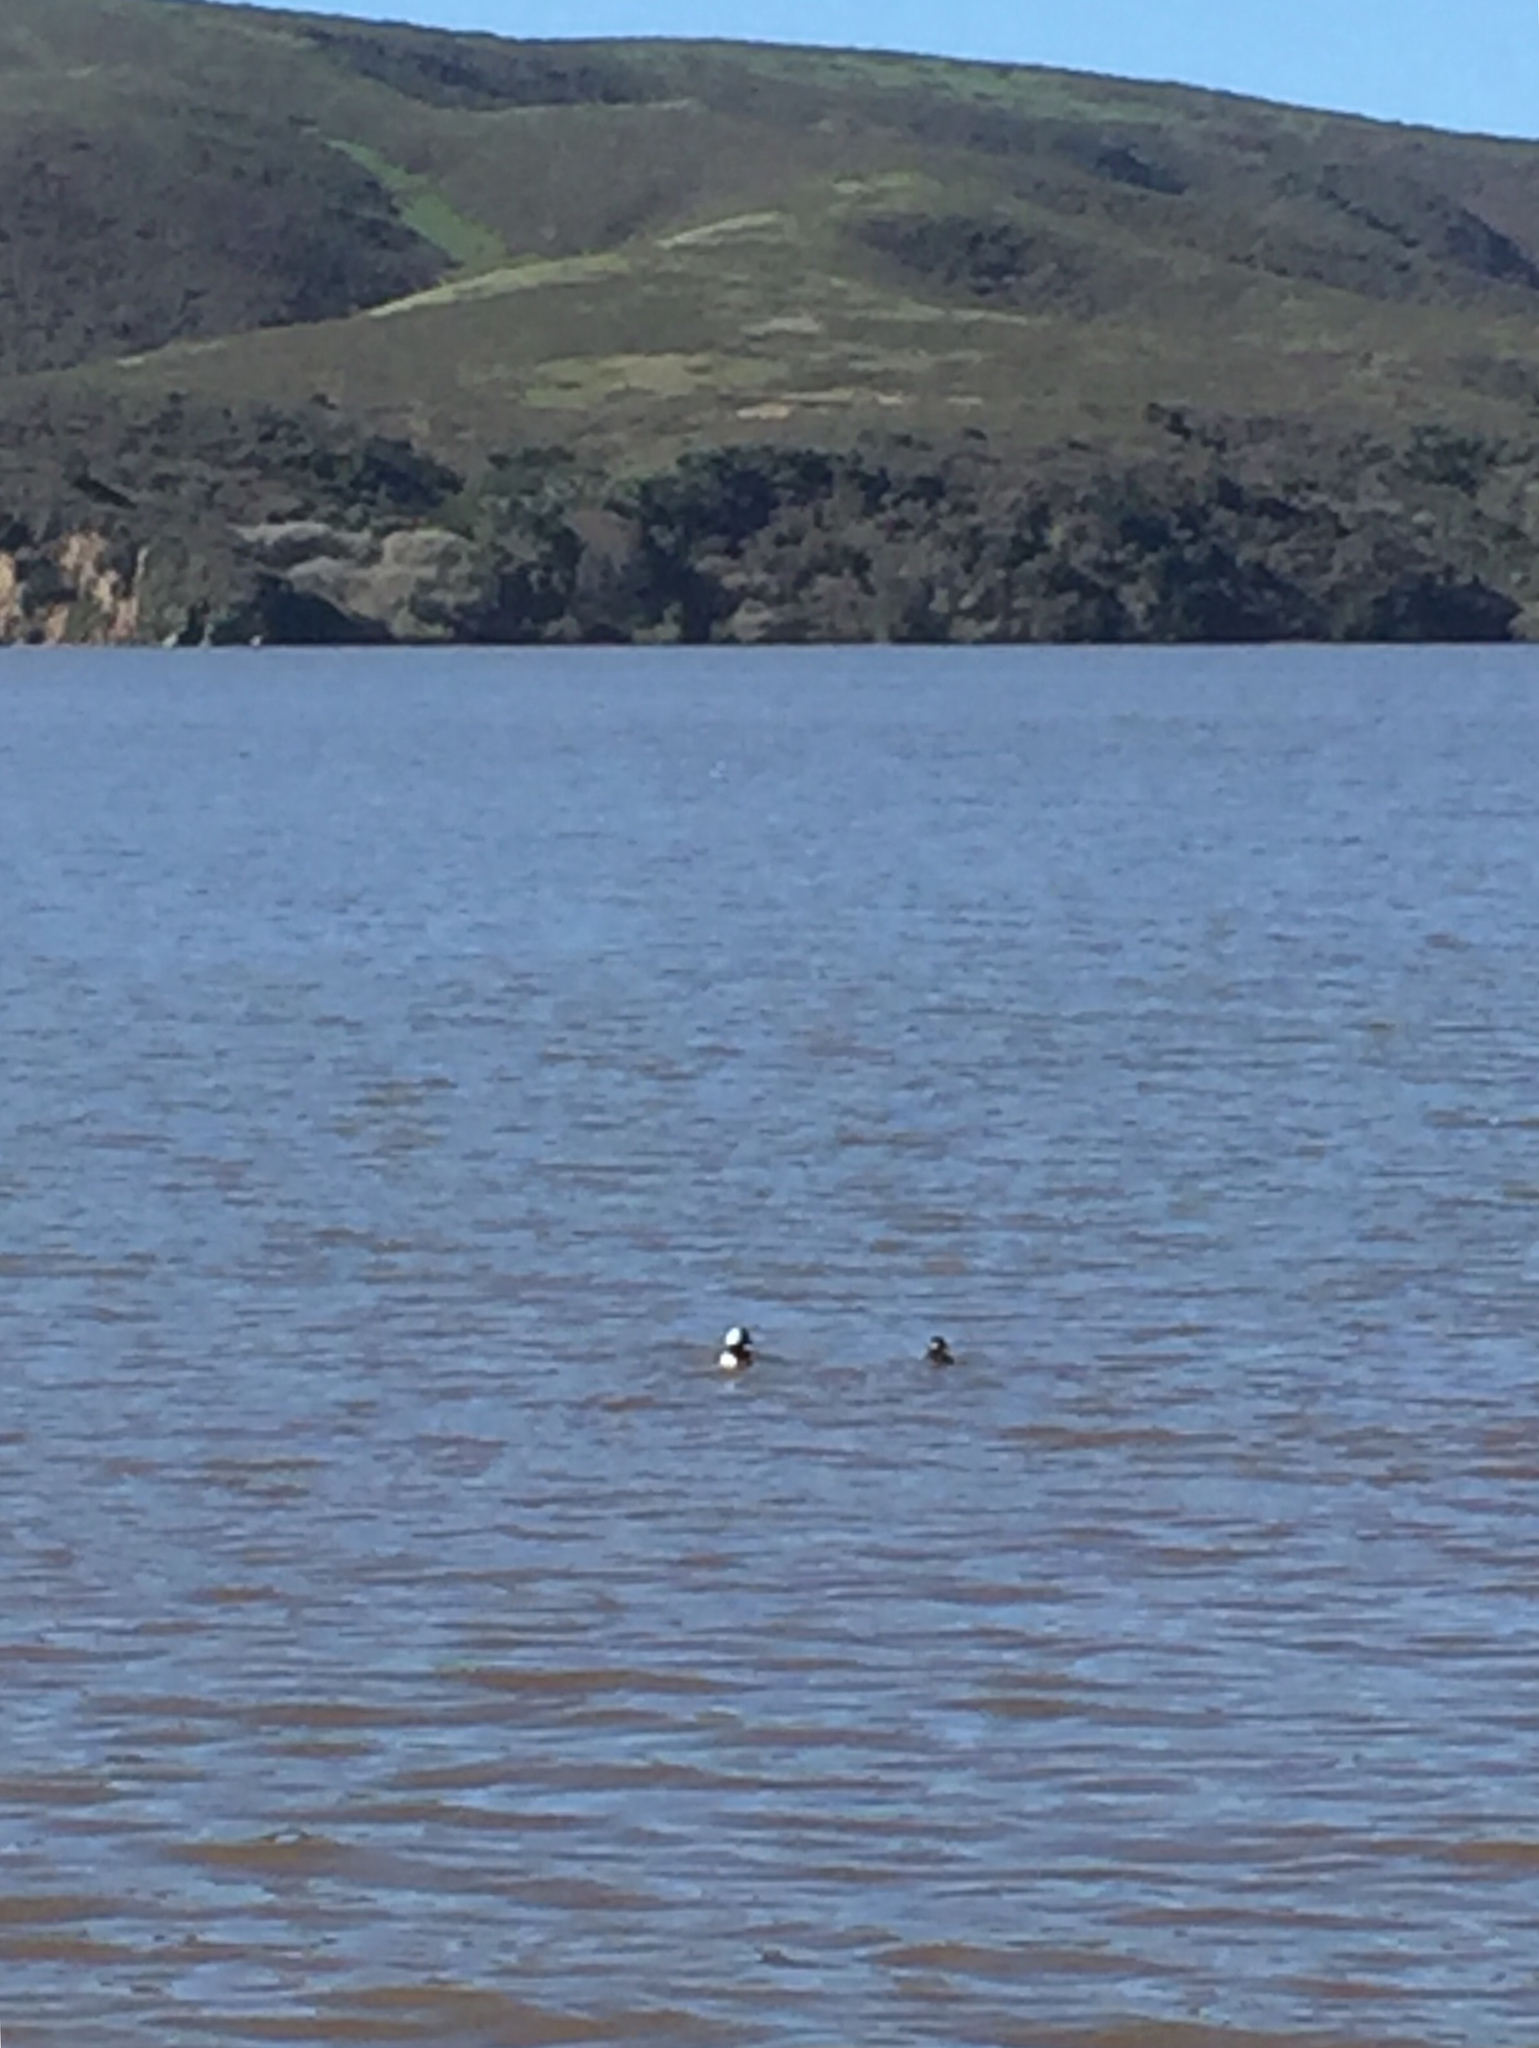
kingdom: Animalia
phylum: Chordata
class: Aves
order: Anseriformes
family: Anatidae
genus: Bucephala
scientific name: Bucephala albeola
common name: Bufflehead
